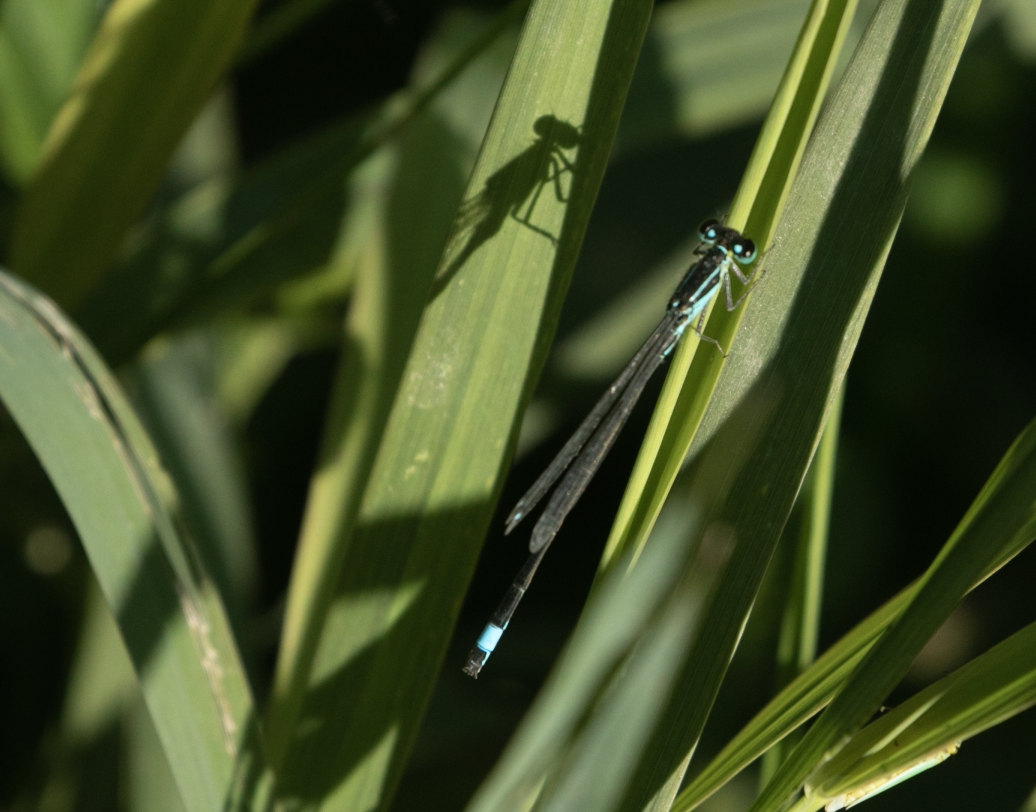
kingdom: Animalia
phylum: Arthropoda
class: Insecta
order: Odonata
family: Coenagrionidae
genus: Ischnura
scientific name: Ischnura elegans
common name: Blue-tailed damselfly
